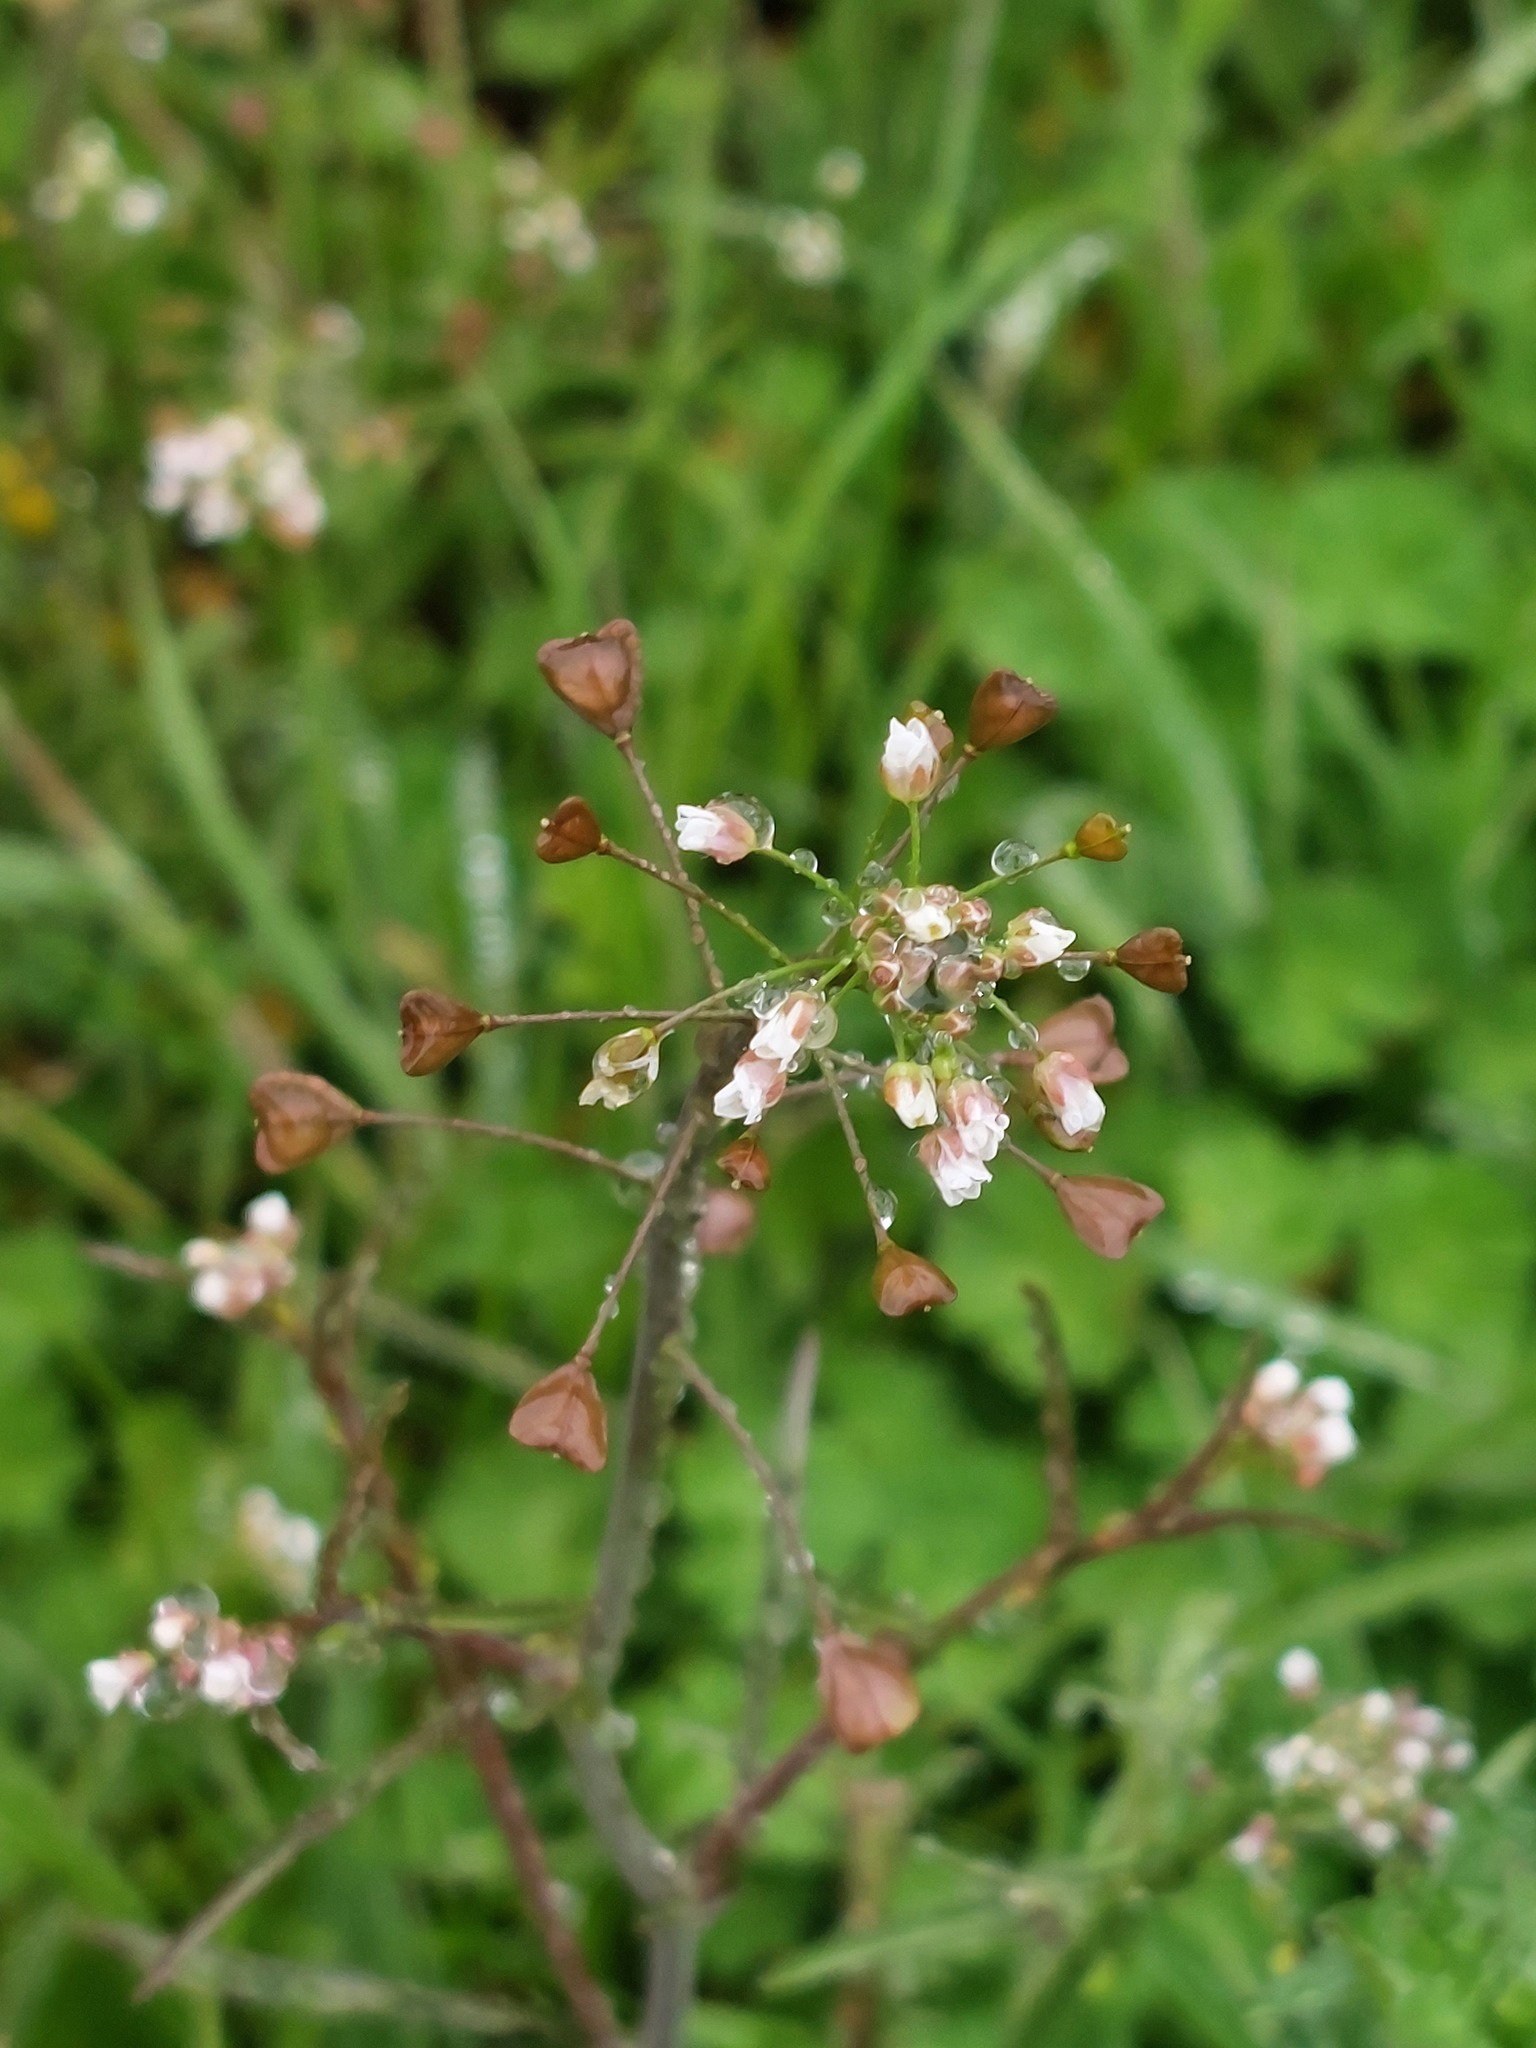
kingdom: Plantae
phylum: Tracheophyta
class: Magnoliopsida
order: Brassicales
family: Brassicaceae
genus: Capsella
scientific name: Capsella bursa-pastoris
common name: Shepherd's purse
